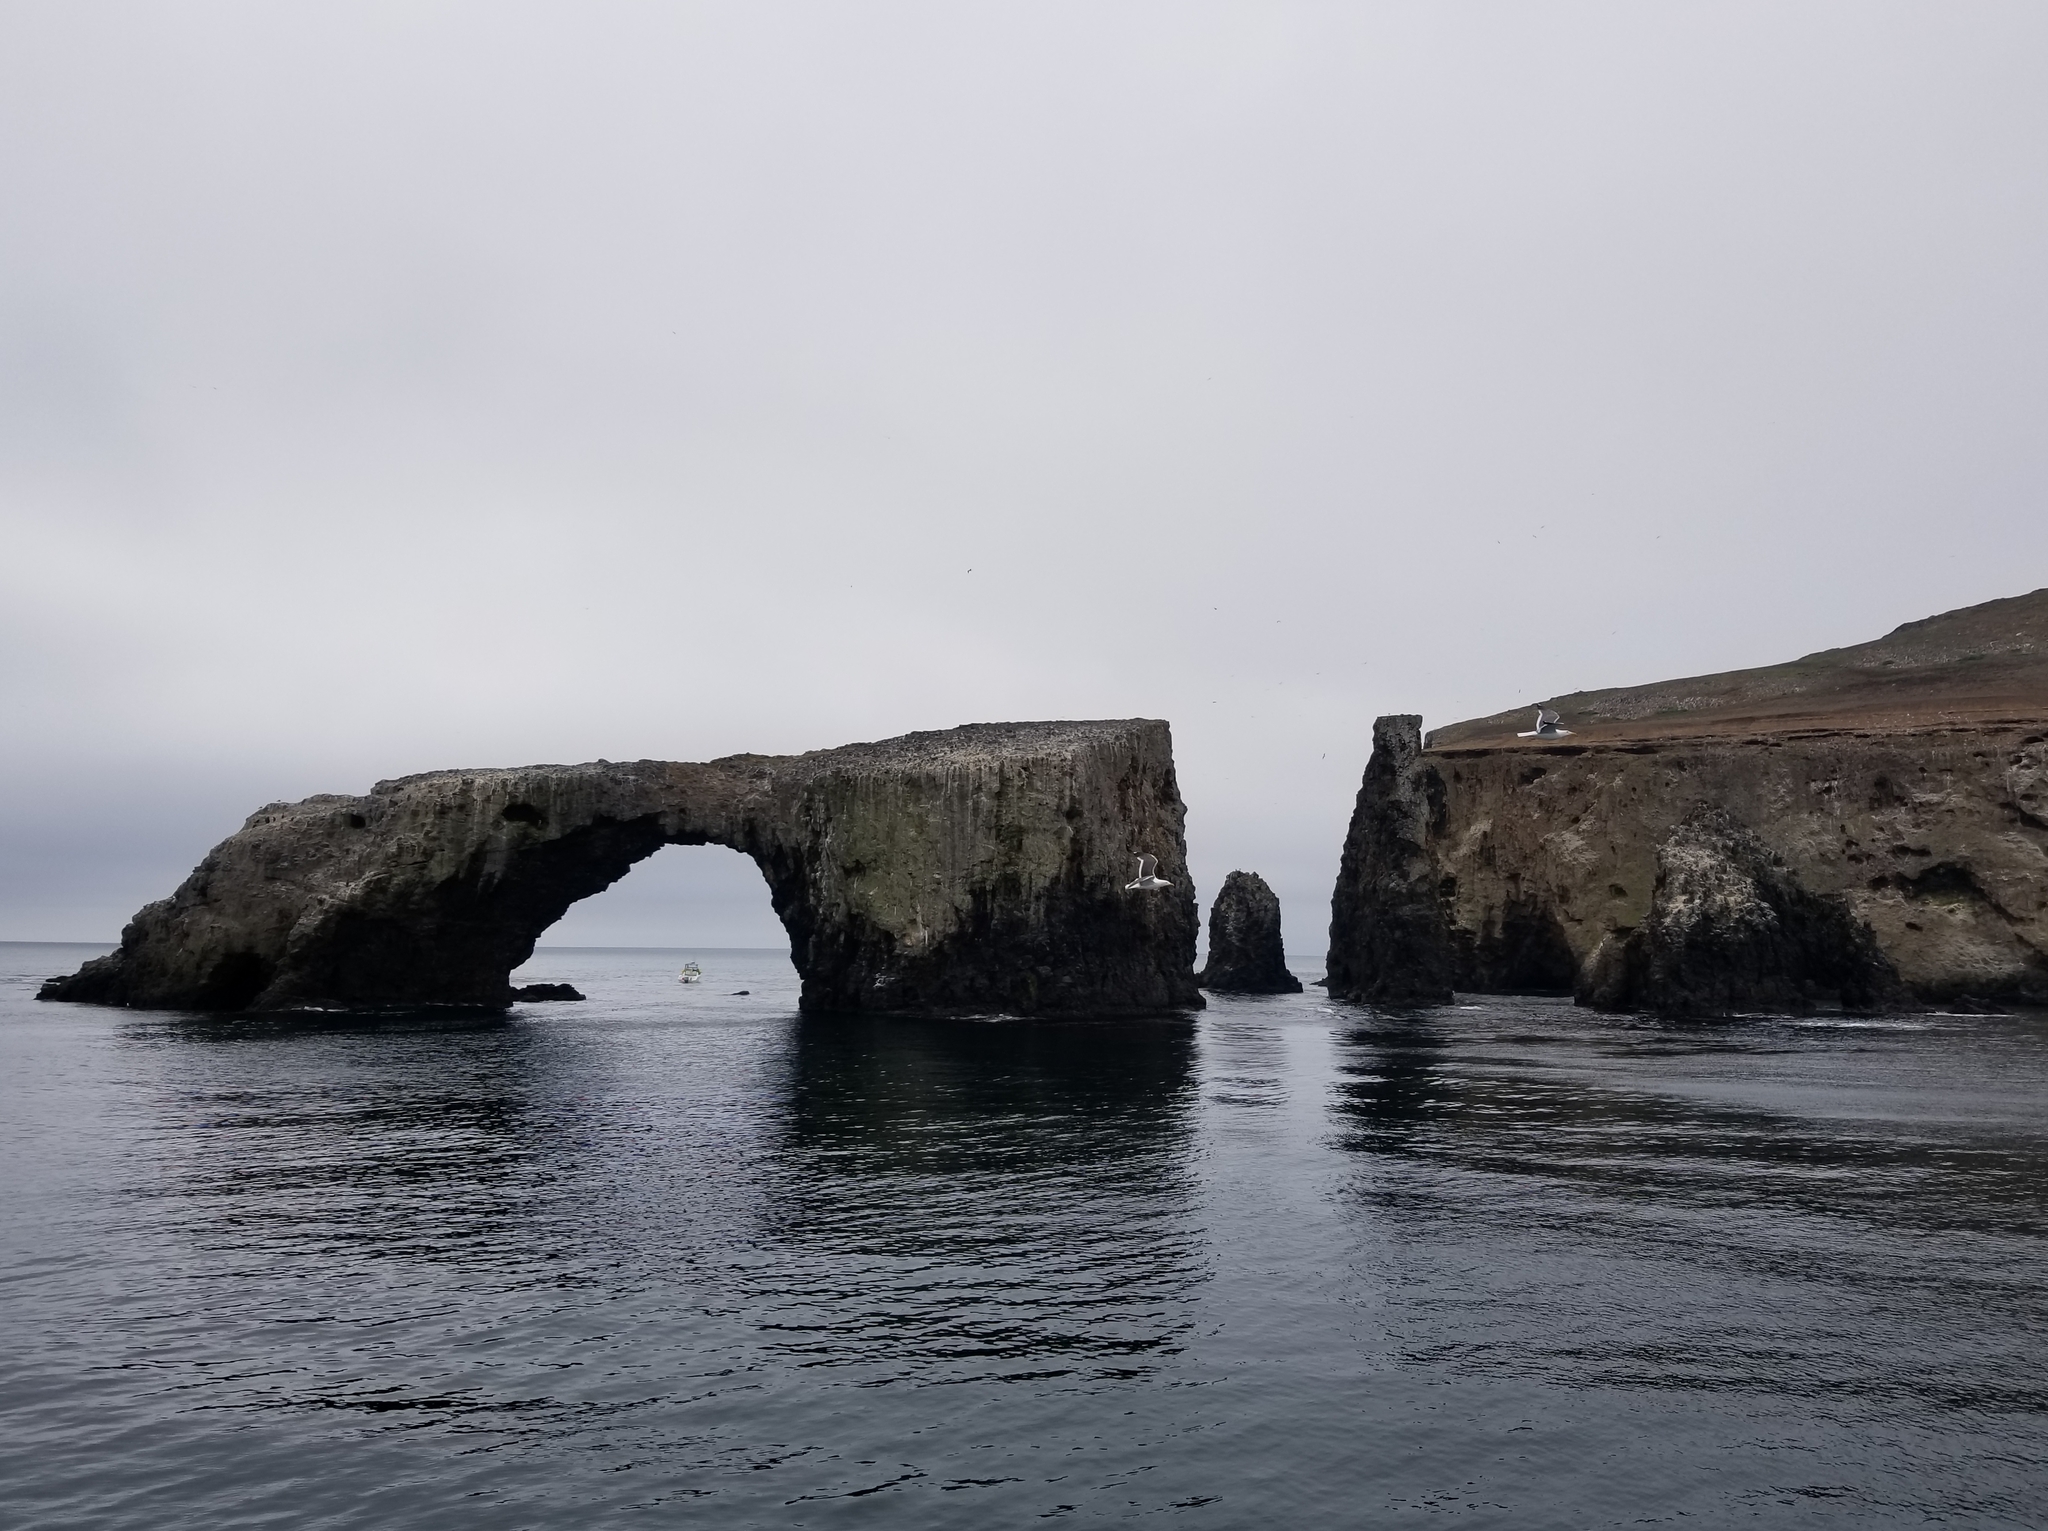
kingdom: Animalia
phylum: Chordata
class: Aves
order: Charadriiformes
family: Laridae
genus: Larus
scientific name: Larus occidentalis
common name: Western gull
